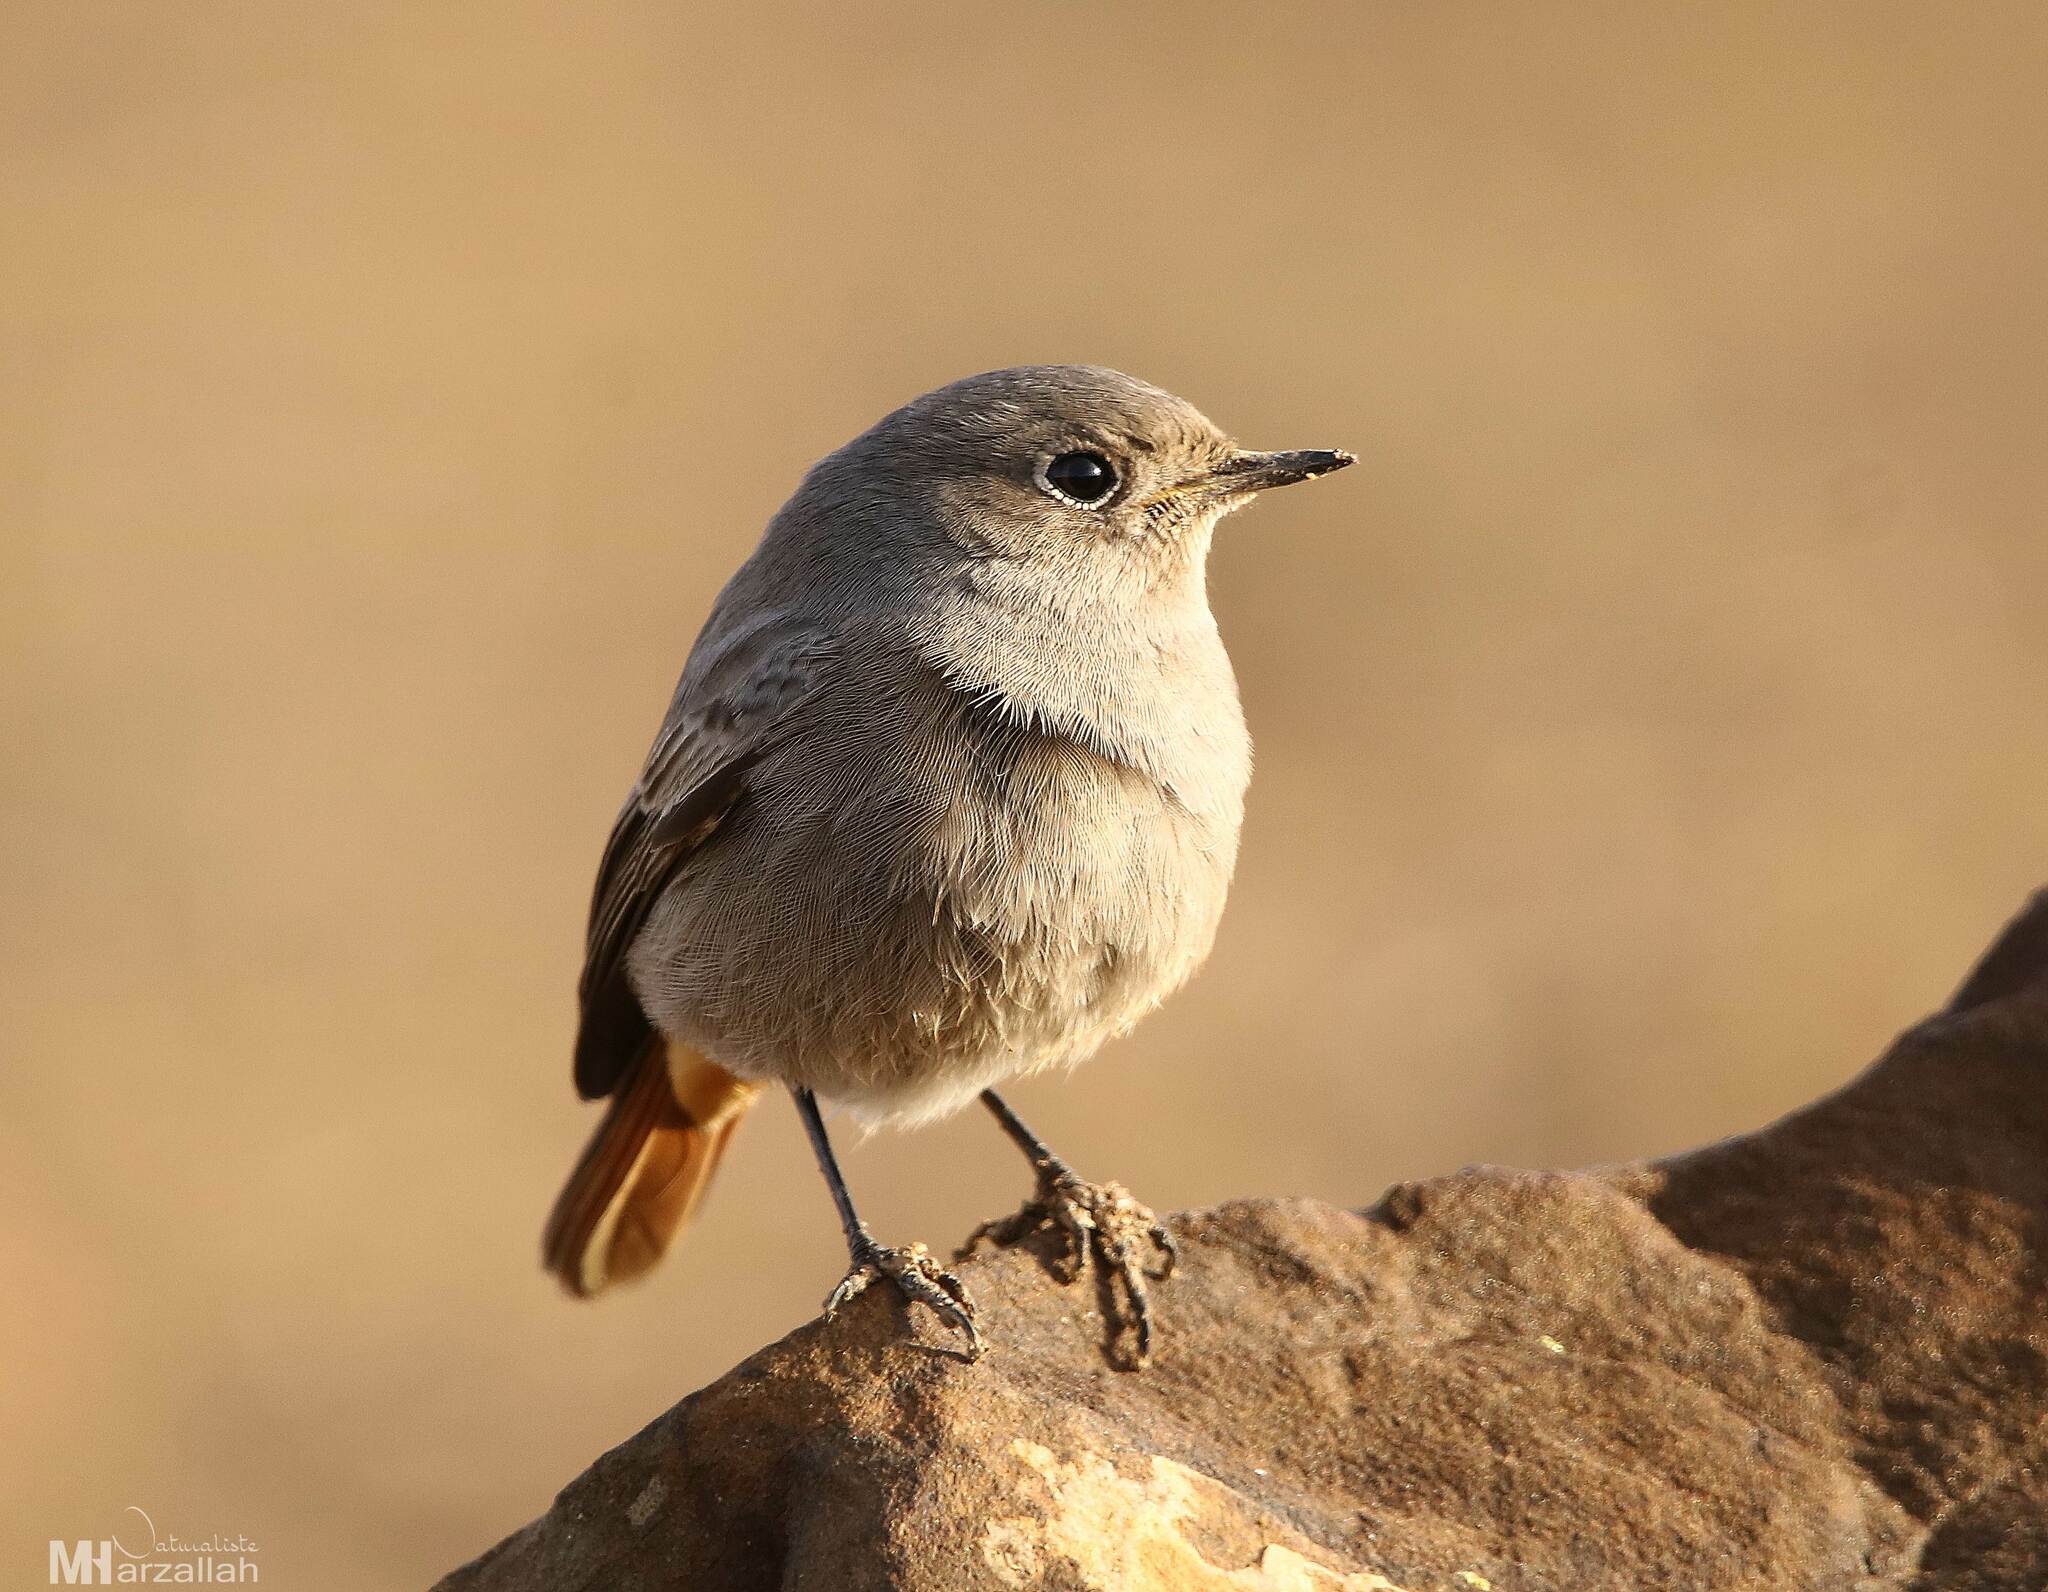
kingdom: Animalia
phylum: Chordata
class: Aves
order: Passeriformes
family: Muscicapidae
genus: Phoenicurus
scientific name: Phoenicurus ochruros
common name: Black redstart
